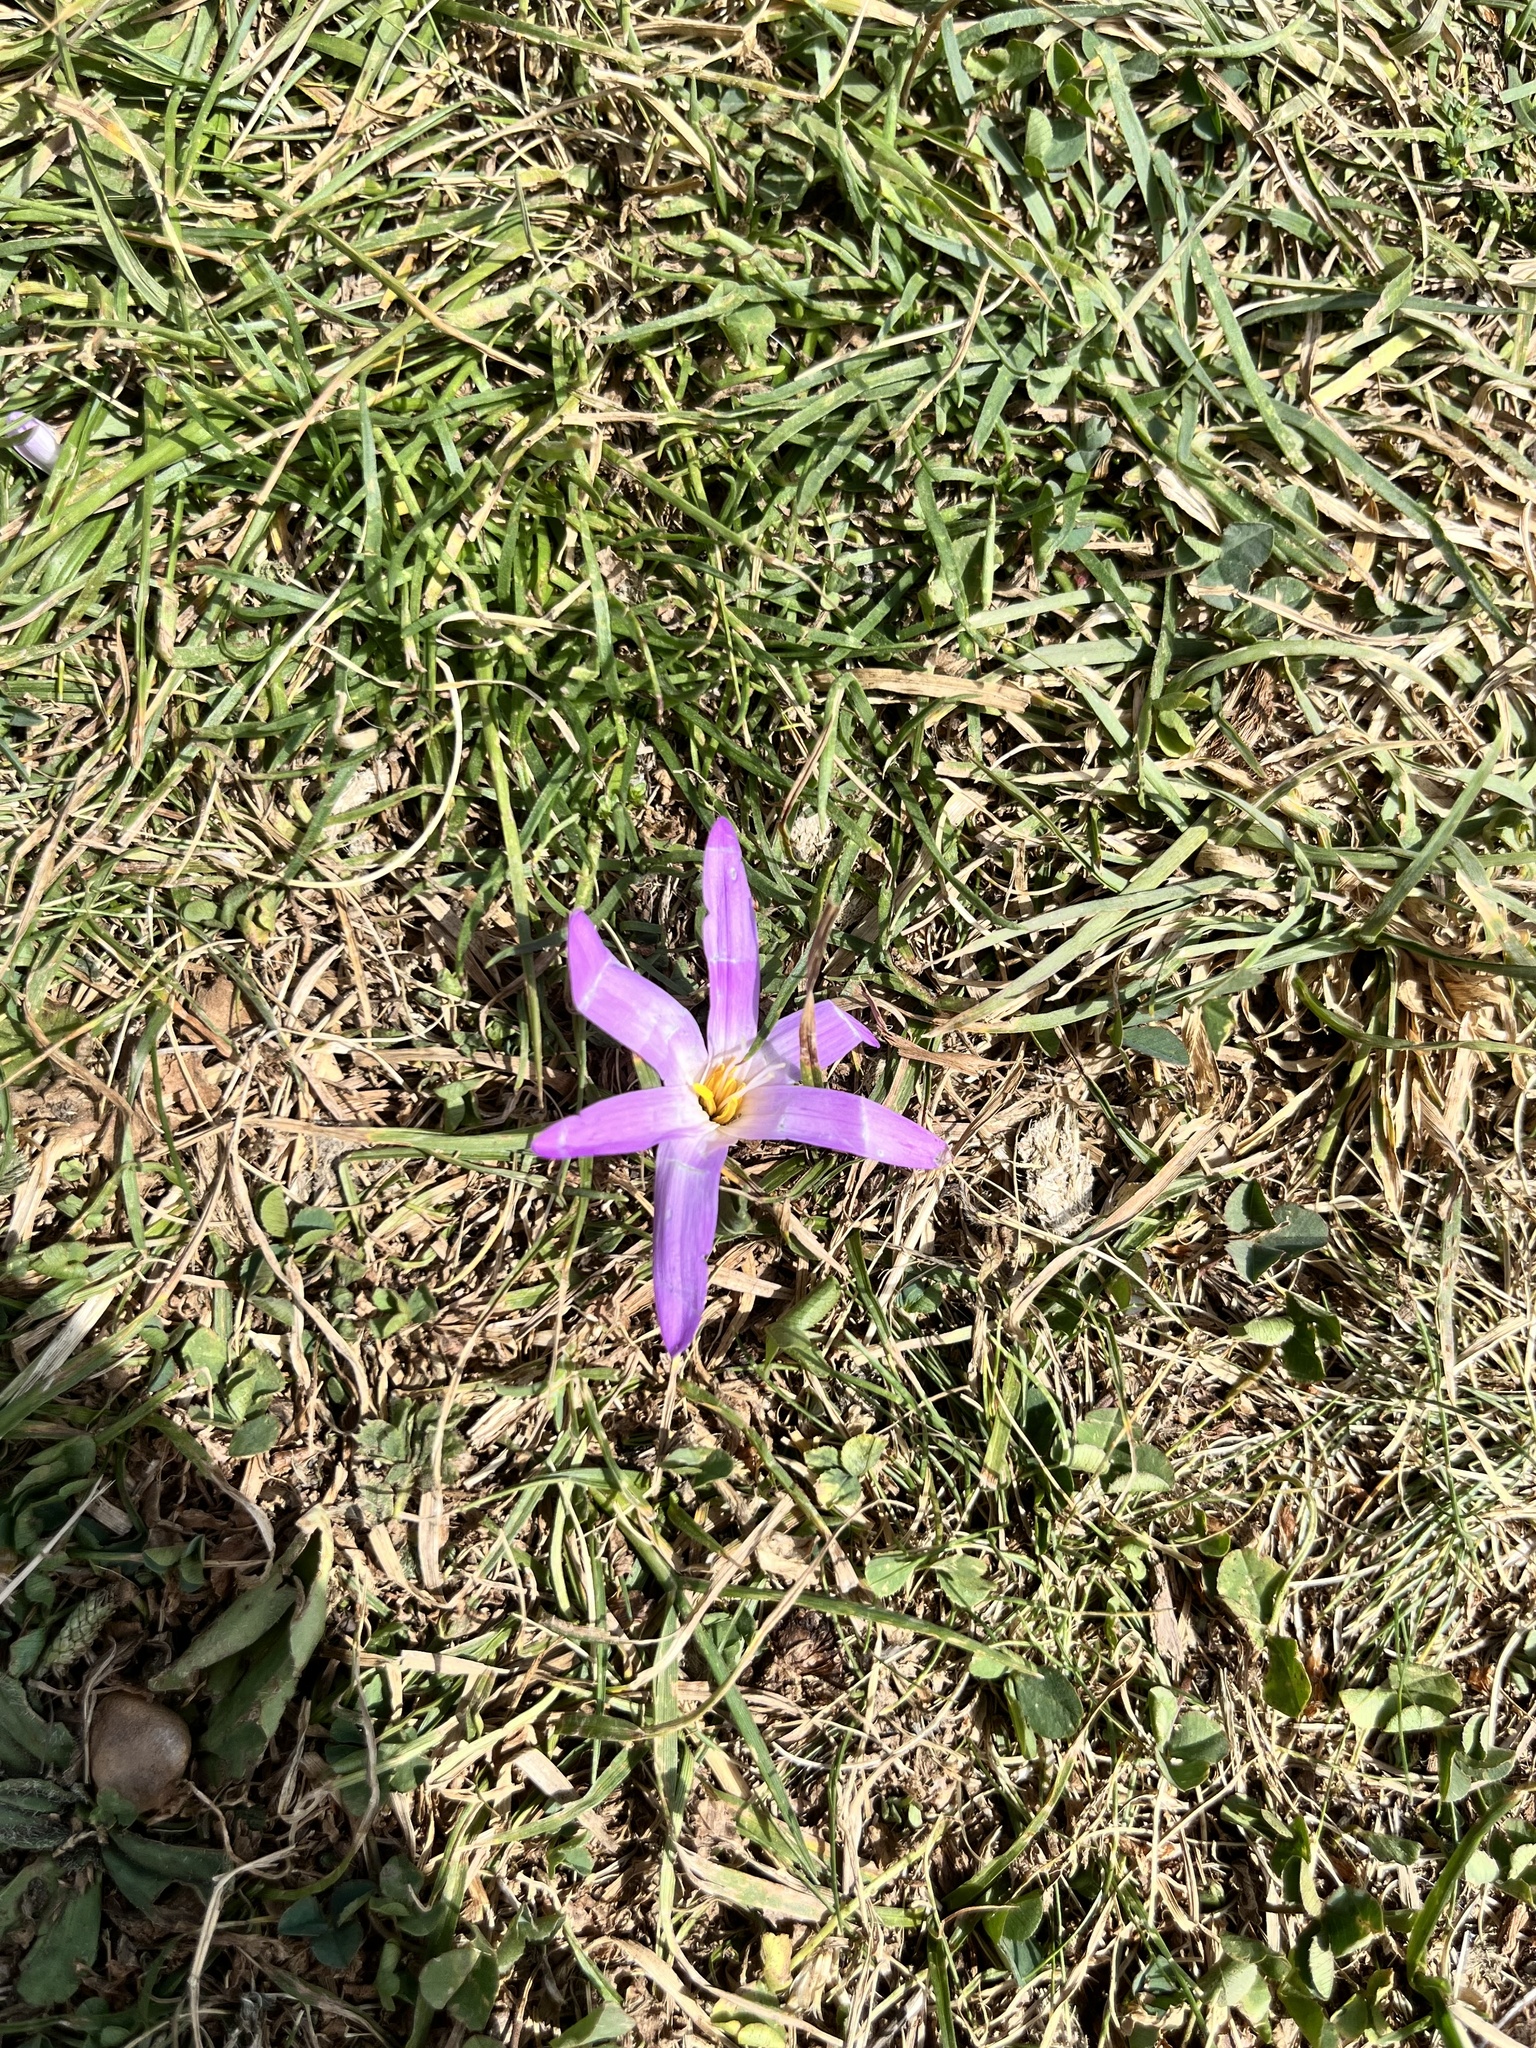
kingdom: Plantae
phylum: Tracheophyta
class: Liliopsida
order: Liliales
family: Colchicaceae
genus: Colchicum
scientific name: Colchicum montanum
